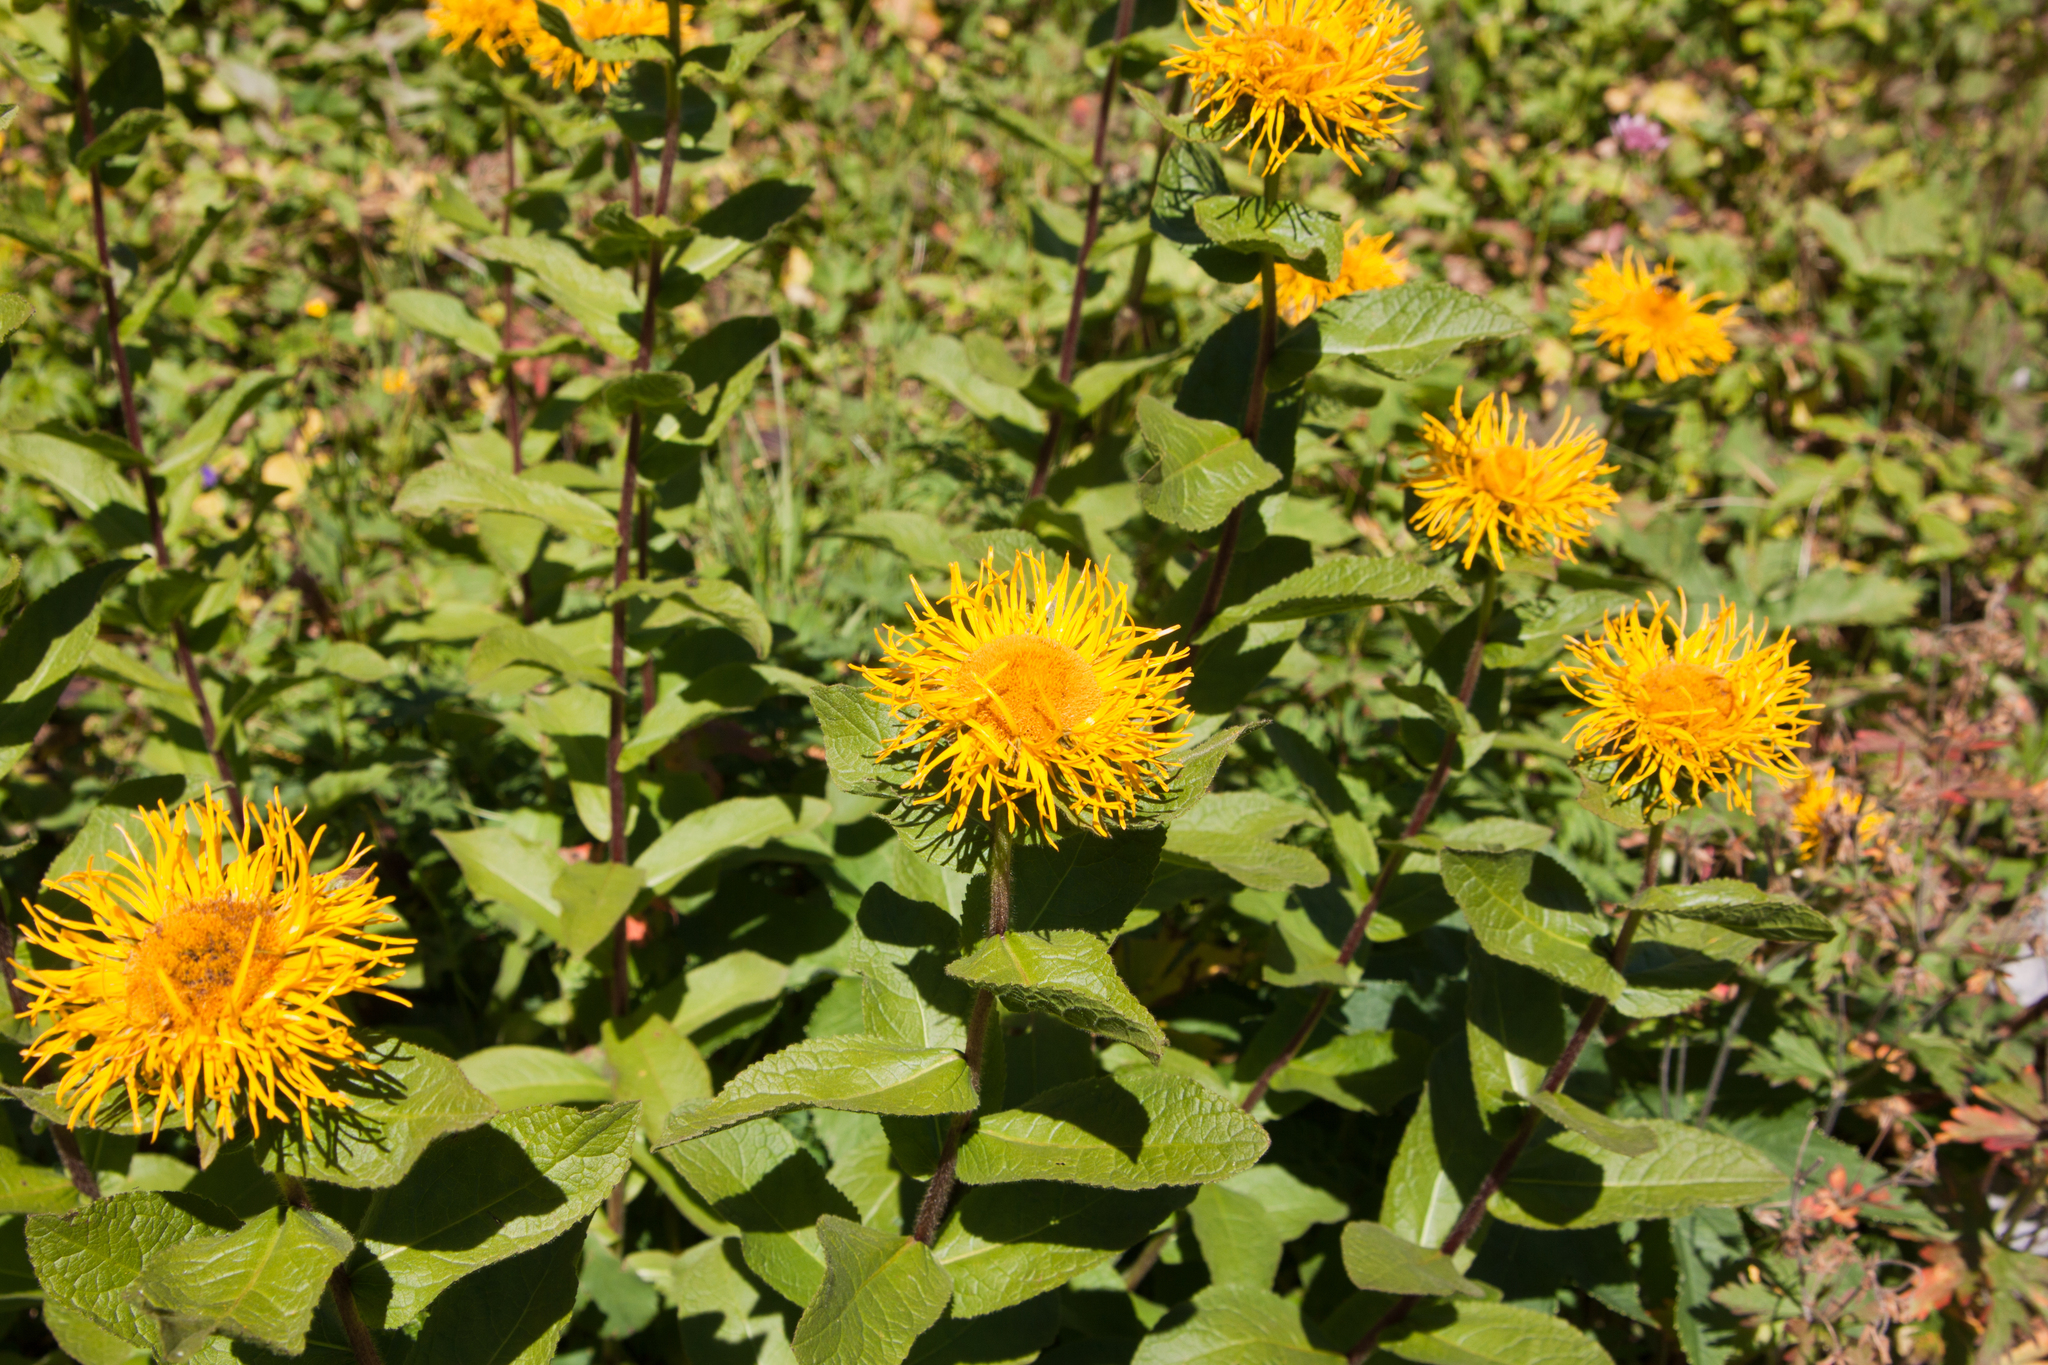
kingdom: Plantae
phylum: Tracheophyta
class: Magnoliopsida
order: Asterales
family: Asteraceae
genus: Pentanema
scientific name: Pentanema orientale
